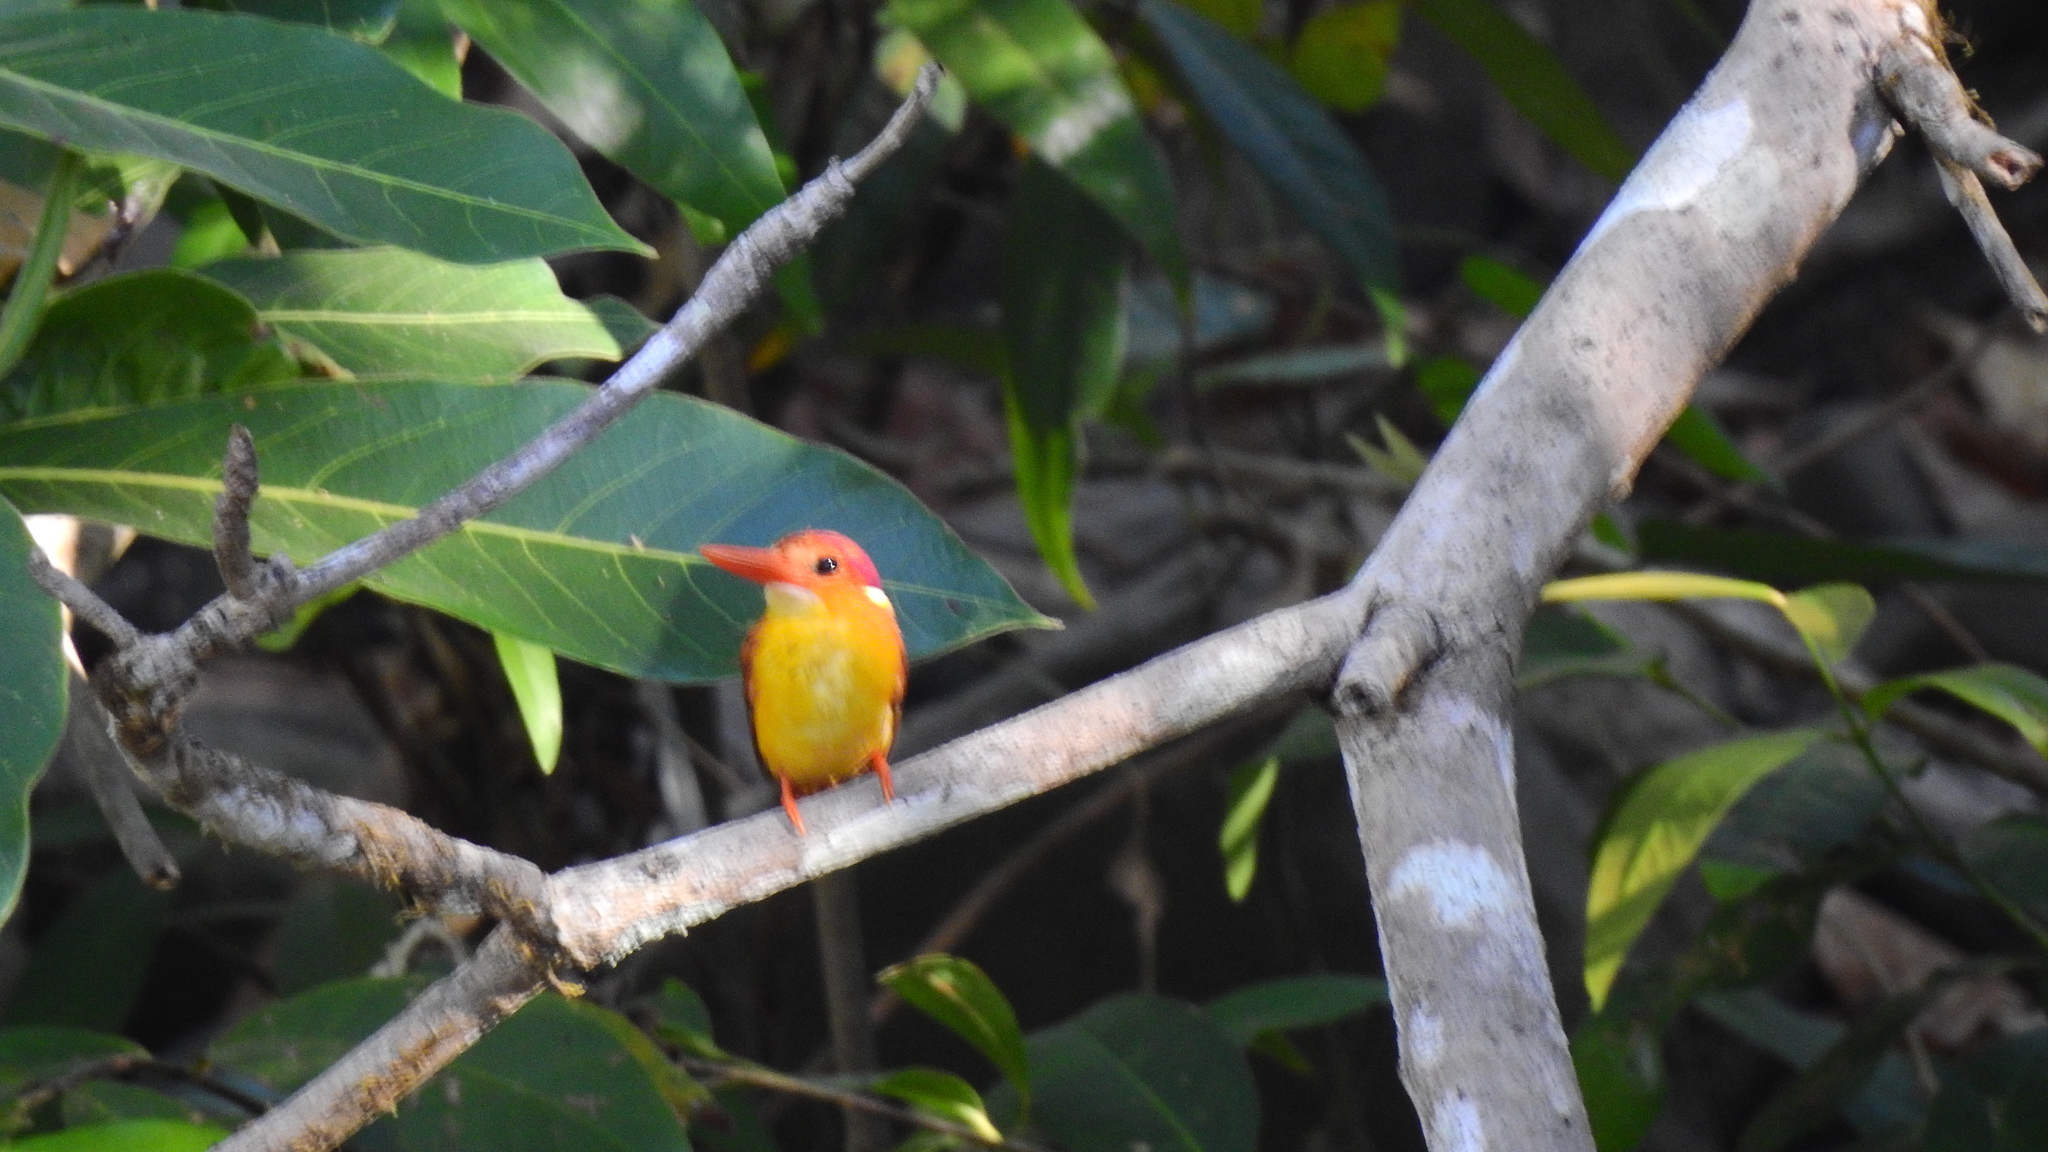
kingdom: Animalia
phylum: Chordata
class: Aves
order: Coraciiformes
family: Alcedinidae
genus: Ceyx
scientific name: Ceyx erithaca
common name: Oriental dwarf kingfisher
